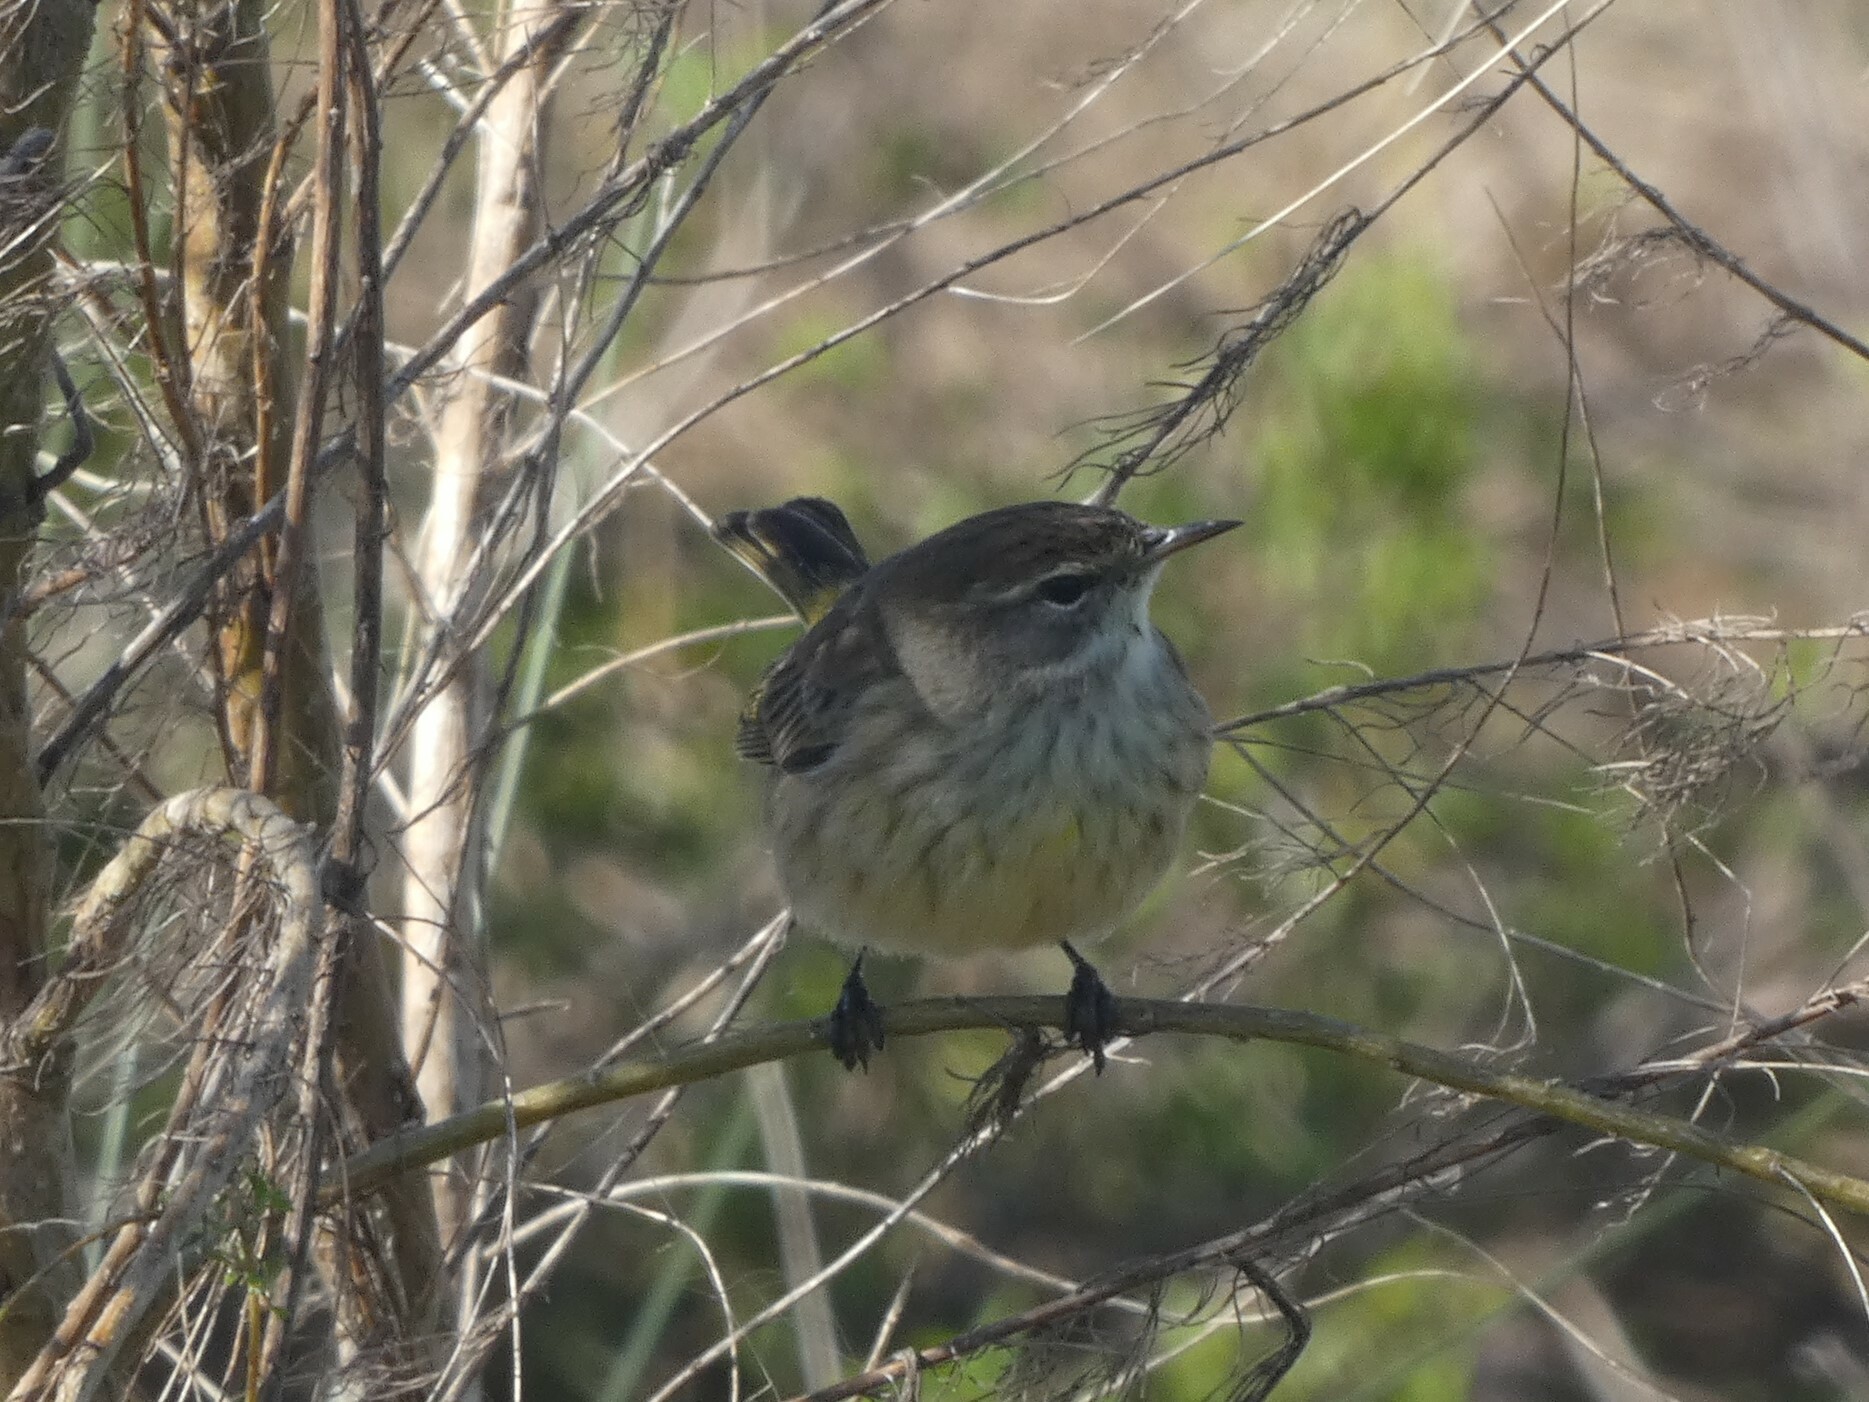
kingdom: Animalia
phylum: Chordata
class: Aves
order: Passeriformes
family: Parulidae
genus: Setophaga
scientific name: Setophaga palmarum
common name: Palm warbler
